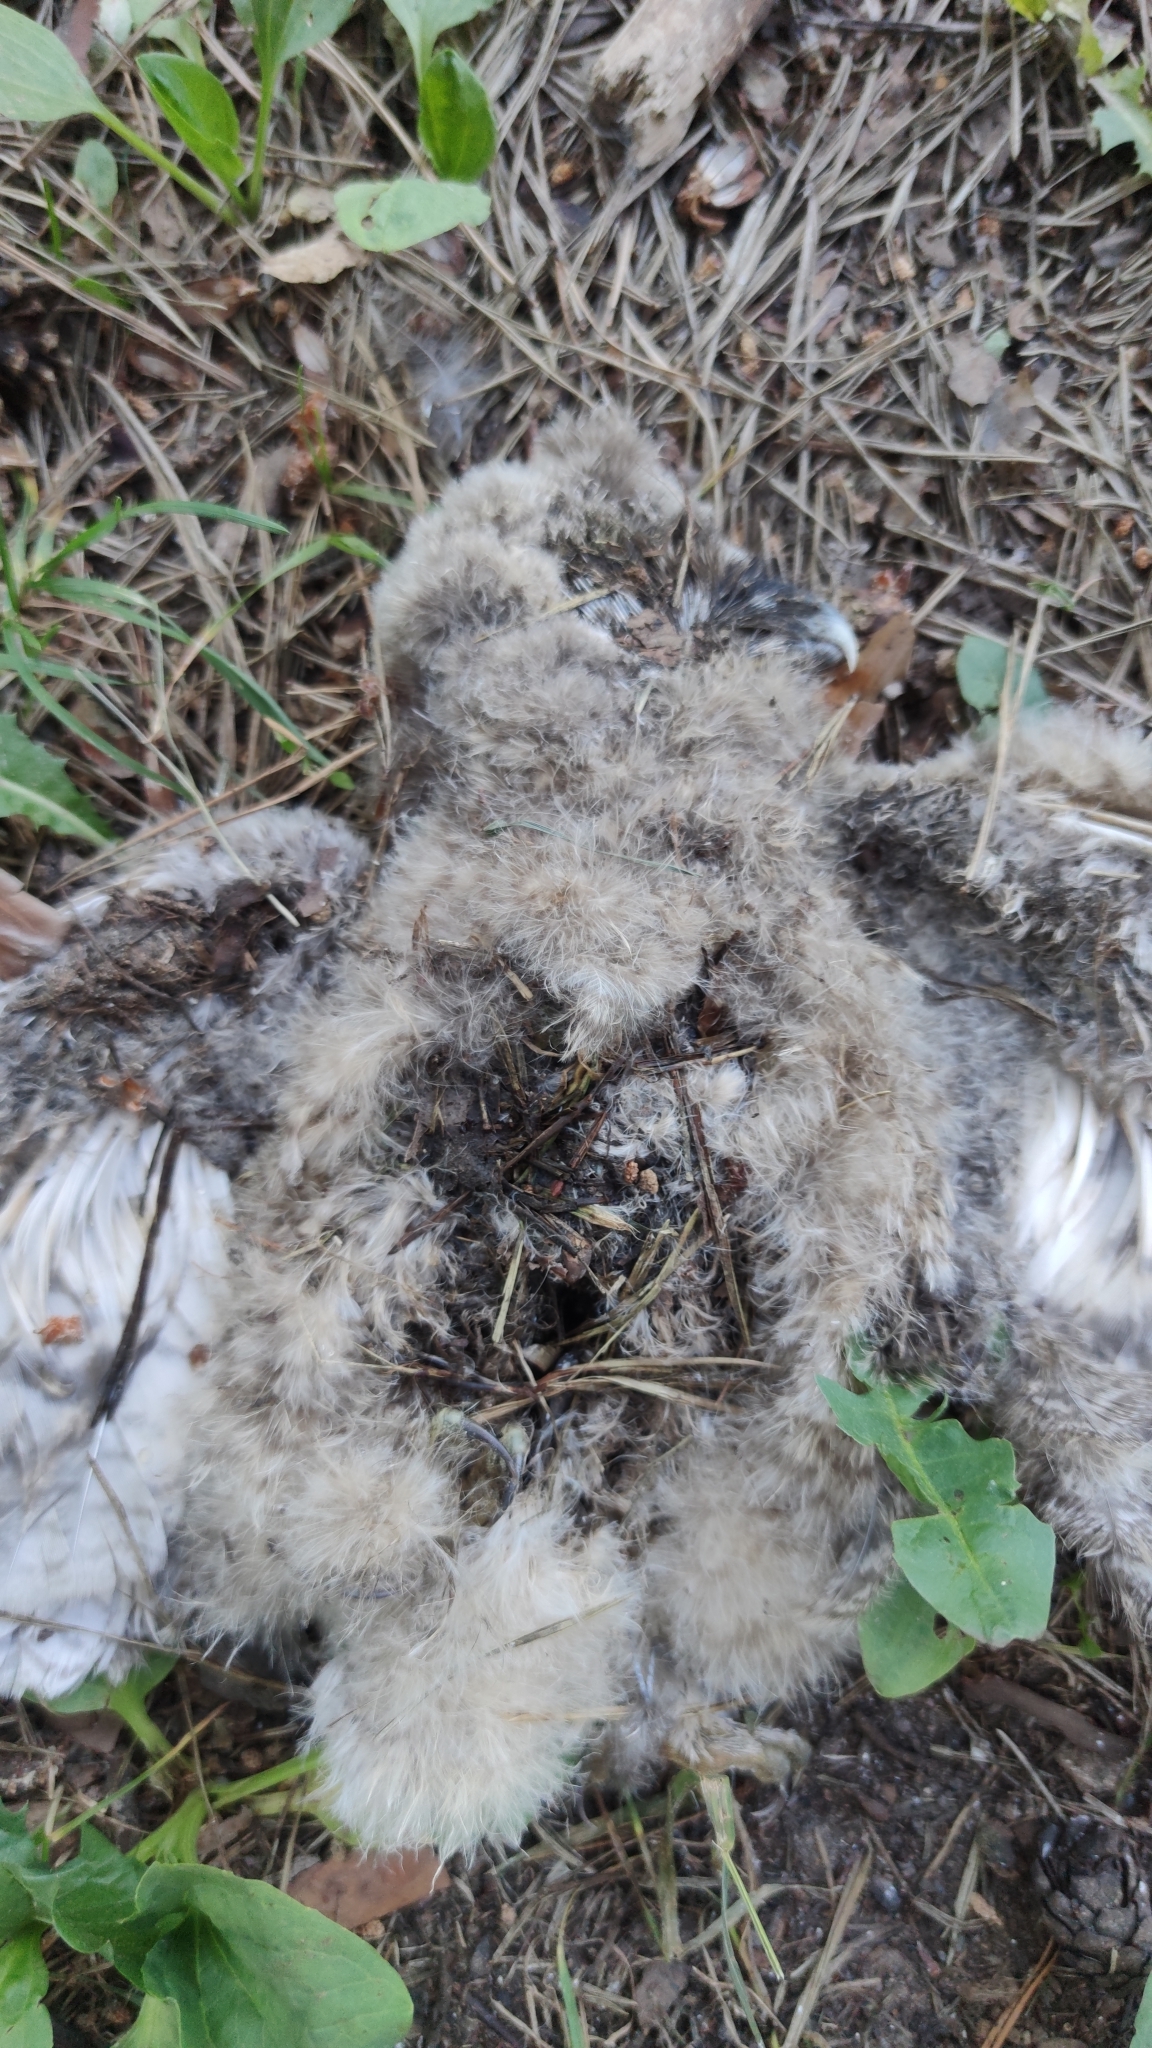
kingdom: Animalia
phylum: Chordata
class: Aves
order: Strigiformes
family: Strigidae
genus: Asio
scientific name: Asio otus
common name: Long-eared owl
